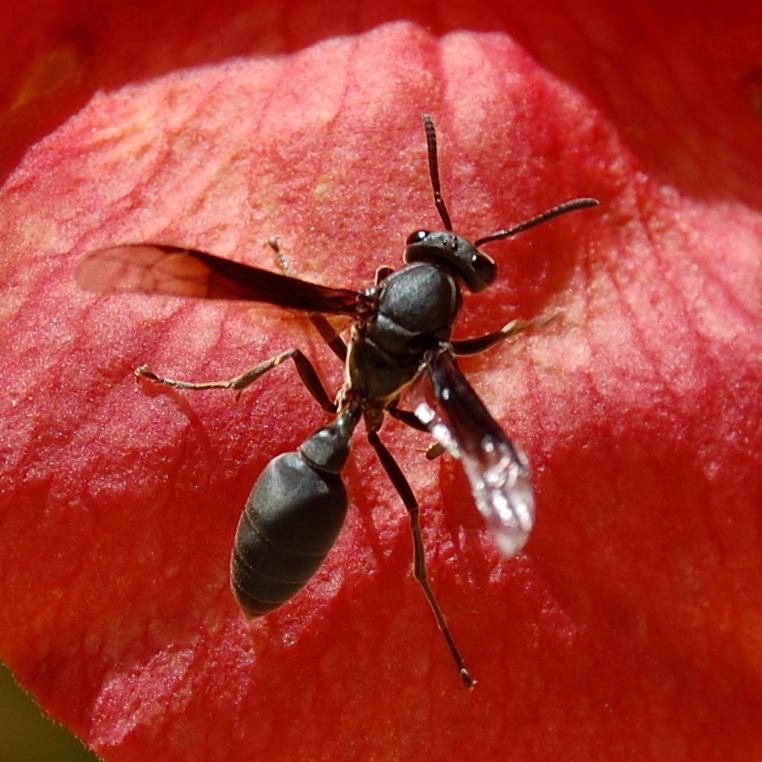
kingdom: Animalia
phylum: Arthropoda
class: Insecta
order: Hymenoptera
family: Eumenidae
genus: Polybia
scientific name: Polybia ignobilis
